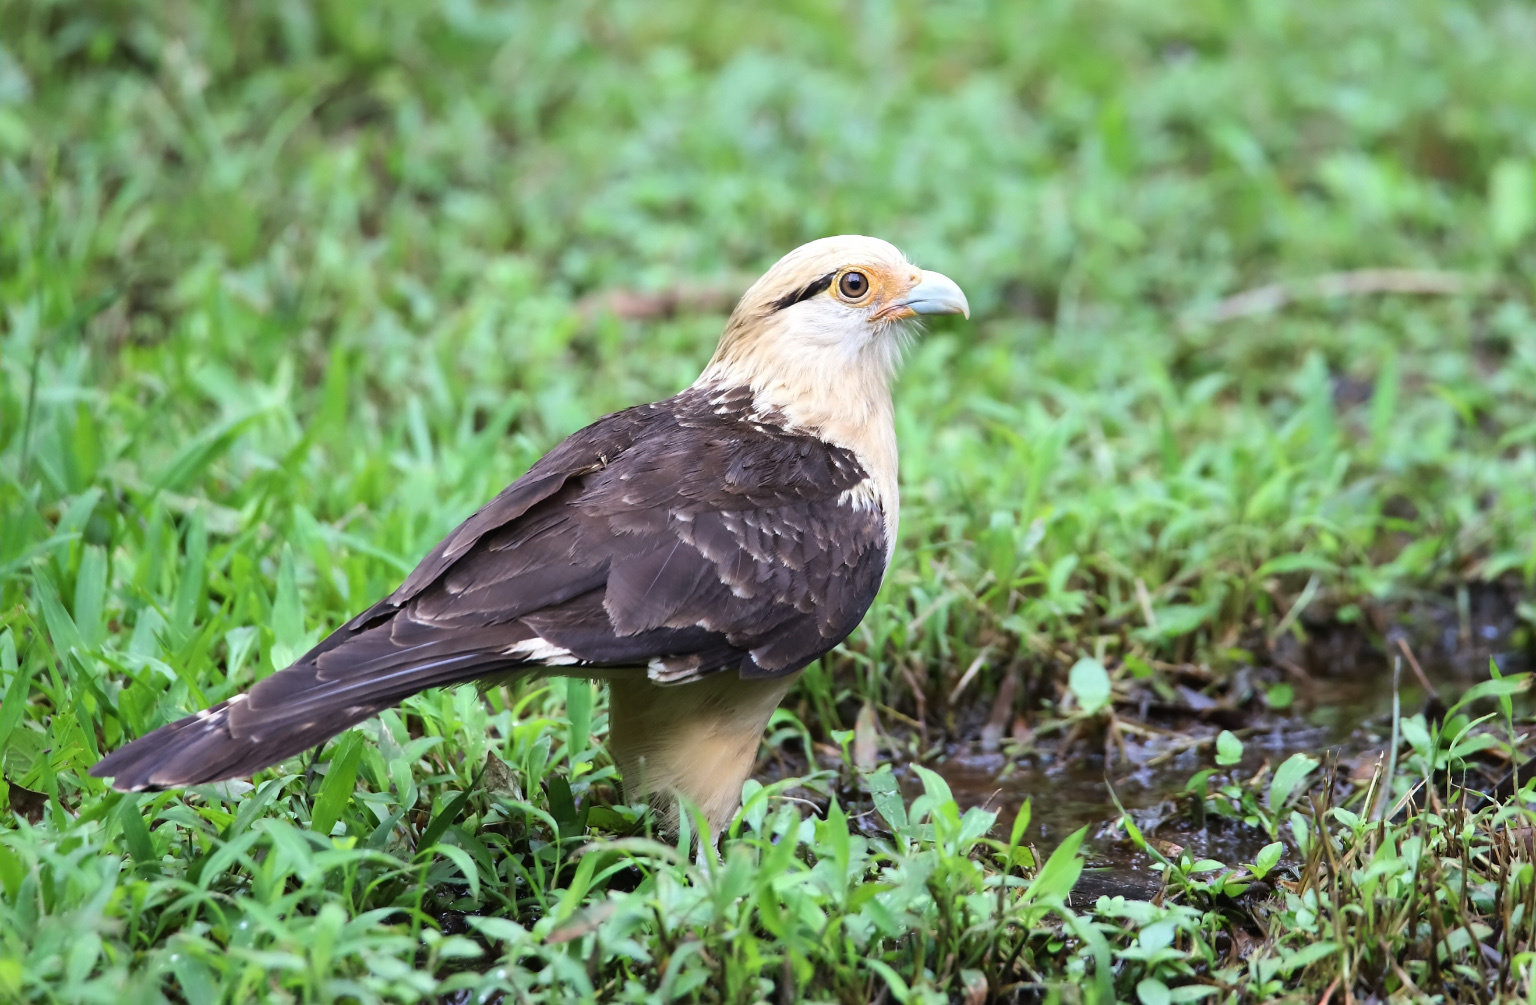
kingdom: Animalia
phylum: Chordata
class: Aves
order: Falconiformes
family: Falconidae
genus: Daptrius
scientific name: Daptrius
